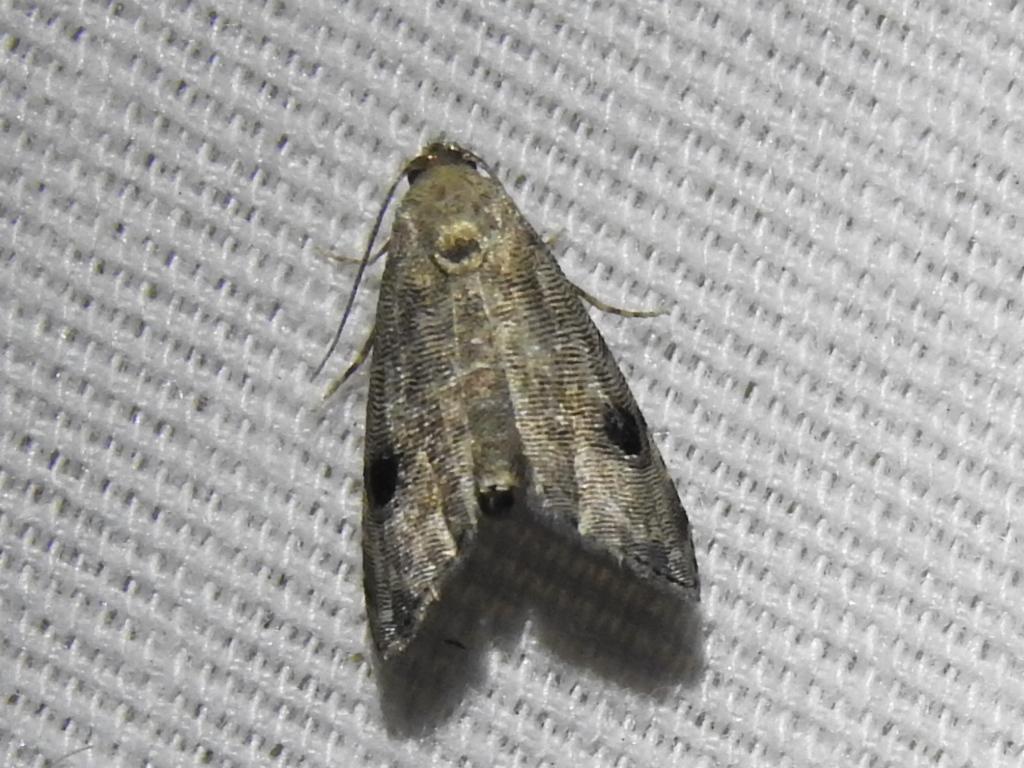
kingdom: Animalia
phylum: Arthropoda
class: Insecta
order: Lepidoptera
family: Noctuidae
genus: Abablemma
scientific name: Abablemma brimleyana
